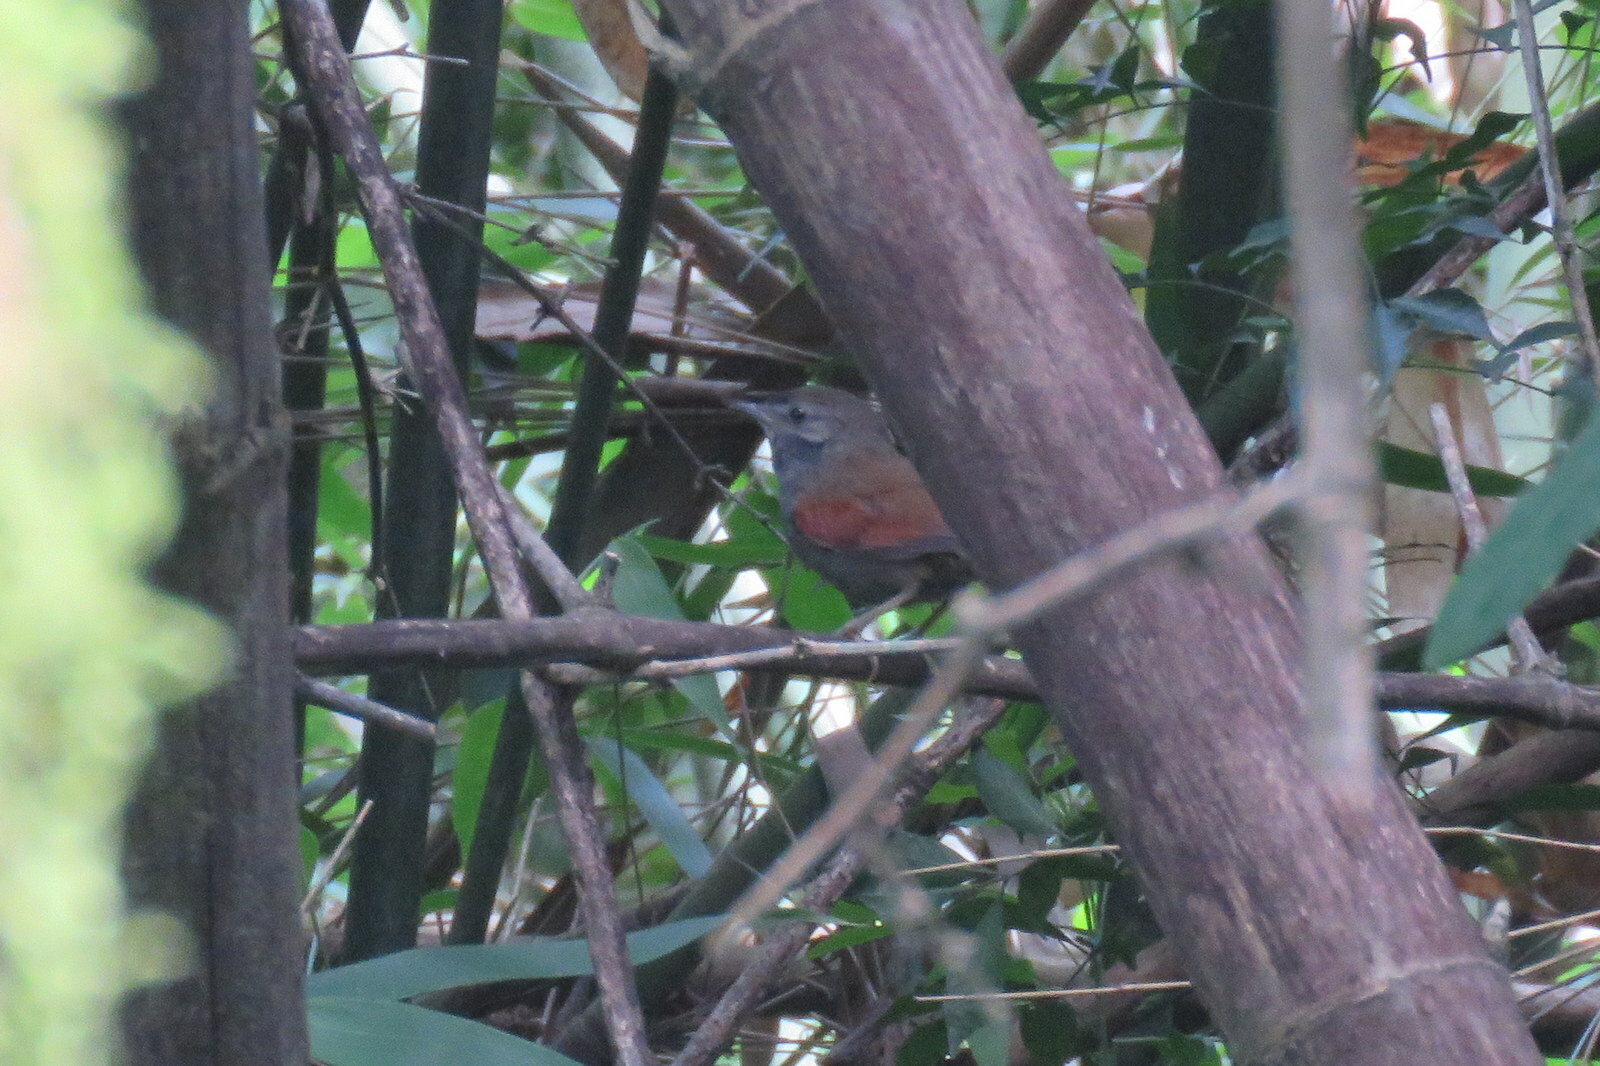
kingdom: Animalia
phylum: Chordata
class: Aves
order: Passeriformes
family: Furnariidae
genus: Synallaxis
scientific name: Synallaxis cinerascens
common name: Grey-bellied spinetail
